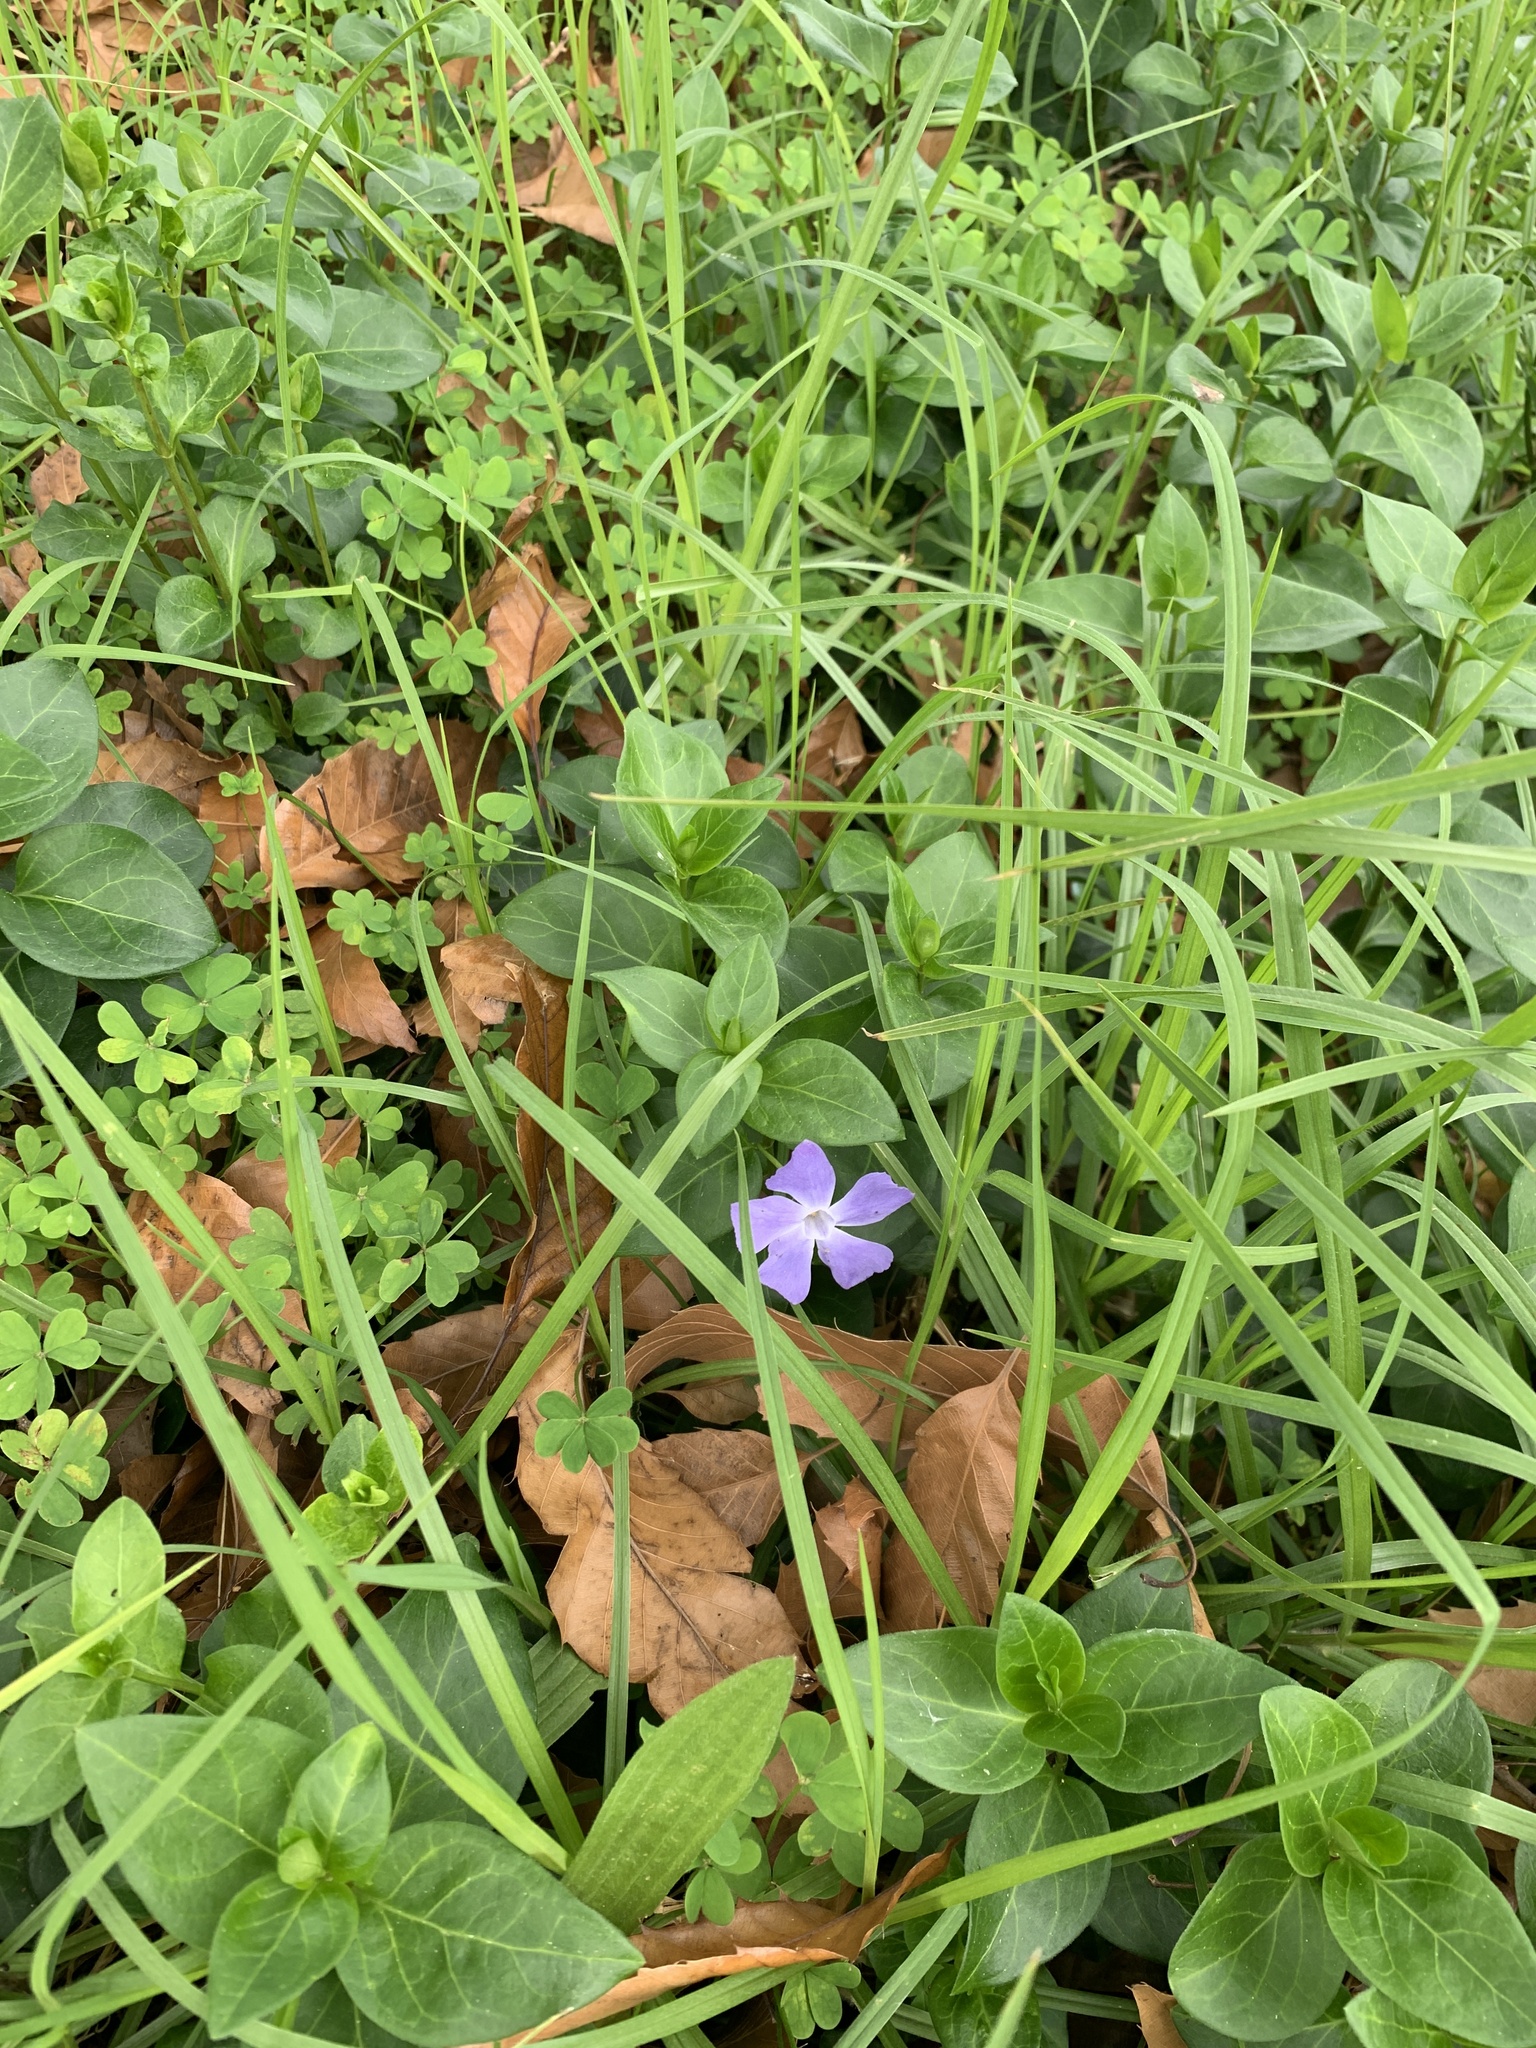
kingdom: Plantae
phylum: Tracheophyta
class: Magnoliopsida
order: Gentianales
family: Apocynaceae
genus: Vinca
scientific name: Vinca major
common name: Greater periwinkle
